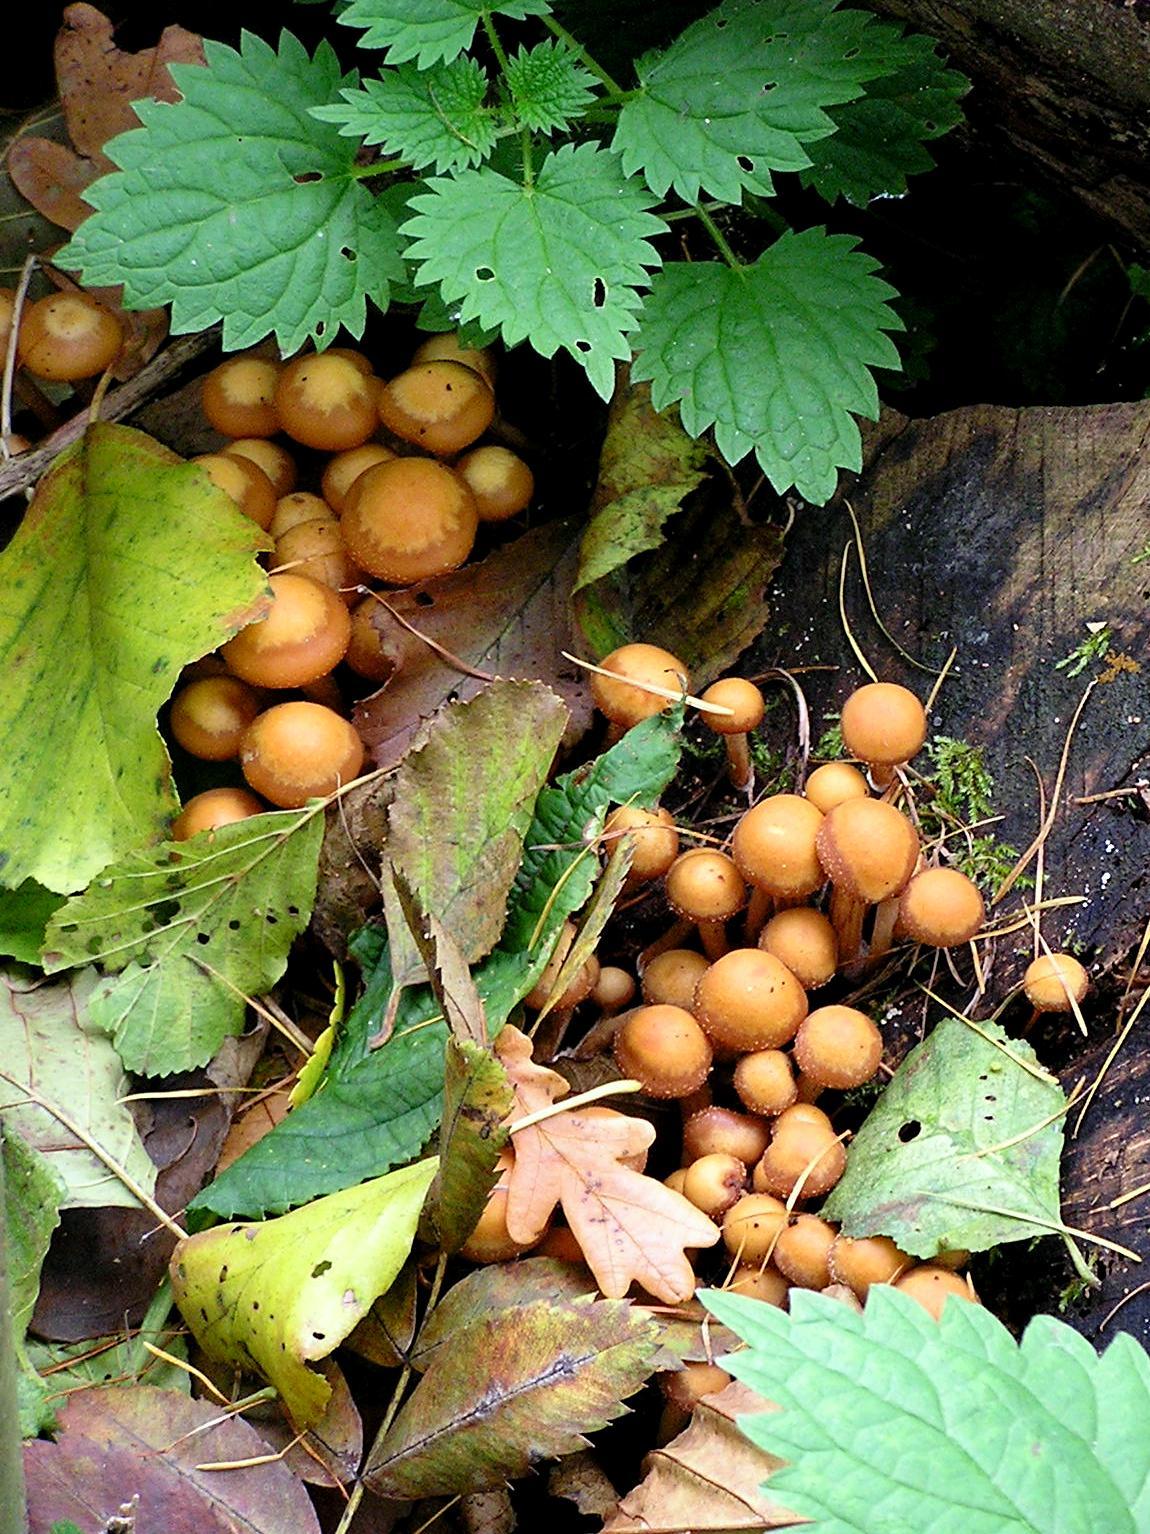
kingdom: Fungi
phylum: Basidiomycota
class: Agaricomycetes
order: Agaricales
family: Strophariaceae
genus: Kuehneromyces
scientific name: Kuehneromyces mutabilis
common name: Sheathed woodtuft
